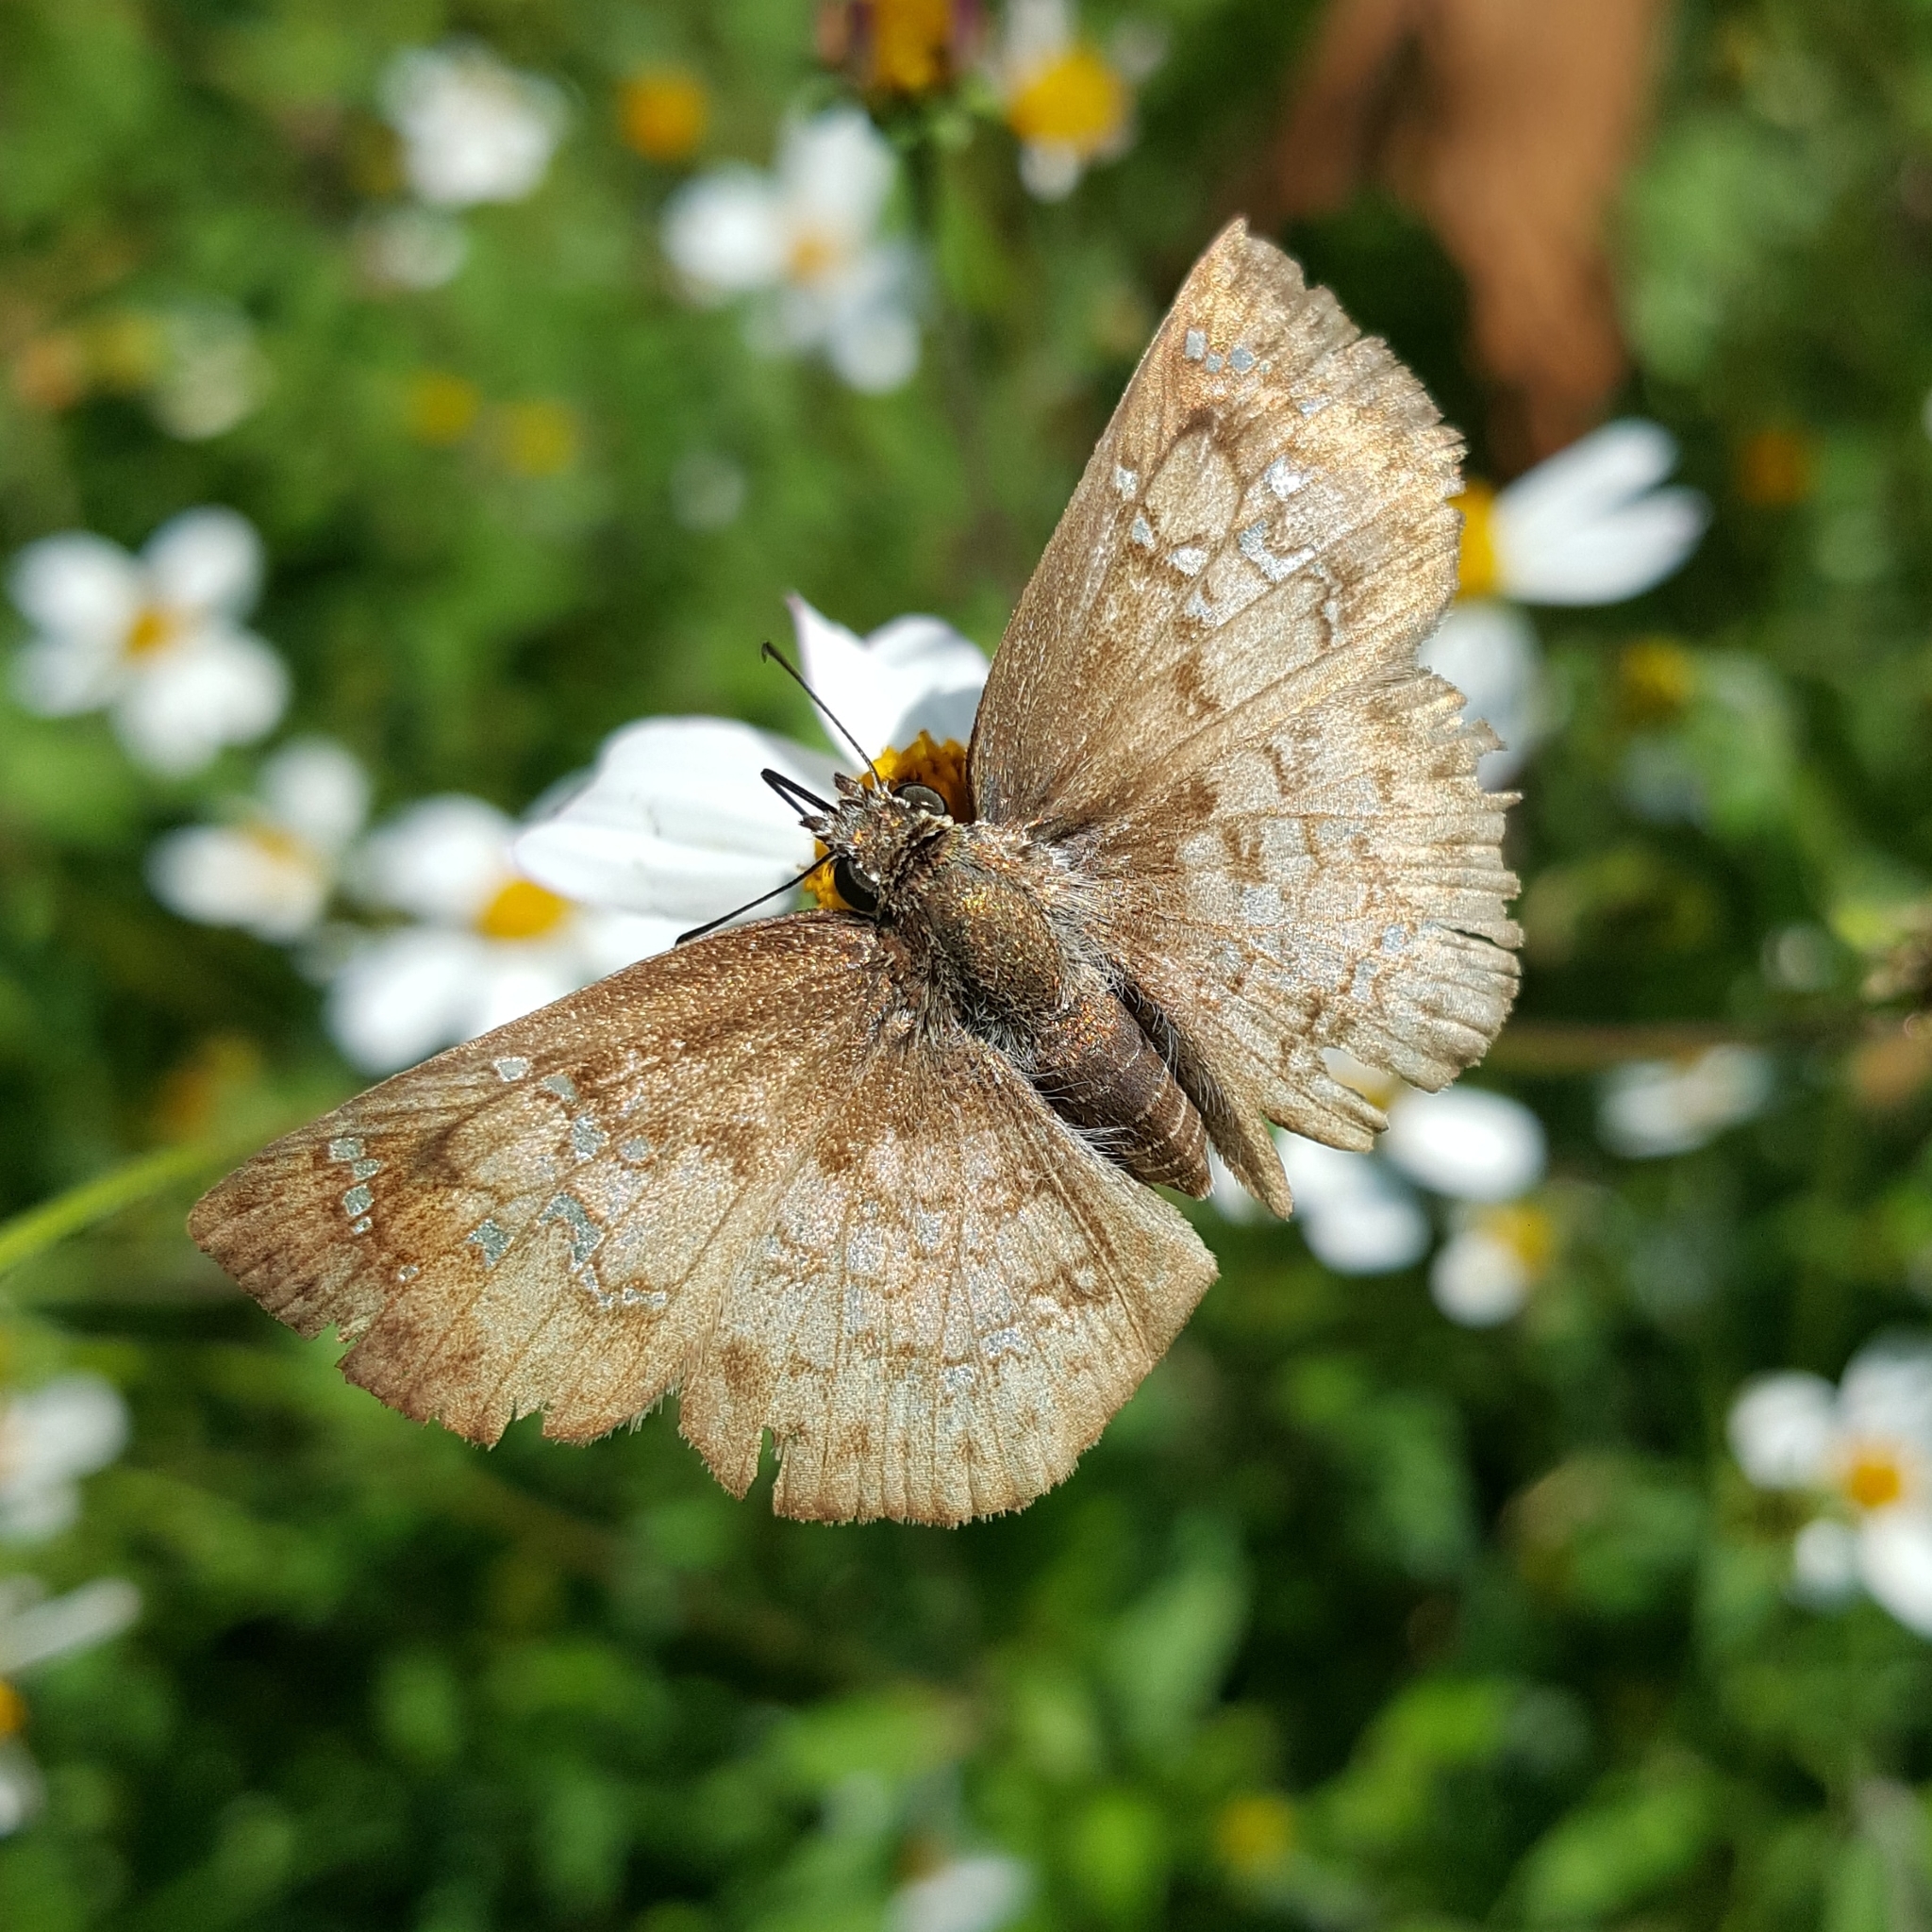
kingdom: Animalia
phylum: Arthropoda
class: Insecta
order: Lepidoptera
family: Hesperiidae
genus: Canesia
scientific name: Canesia canescens
